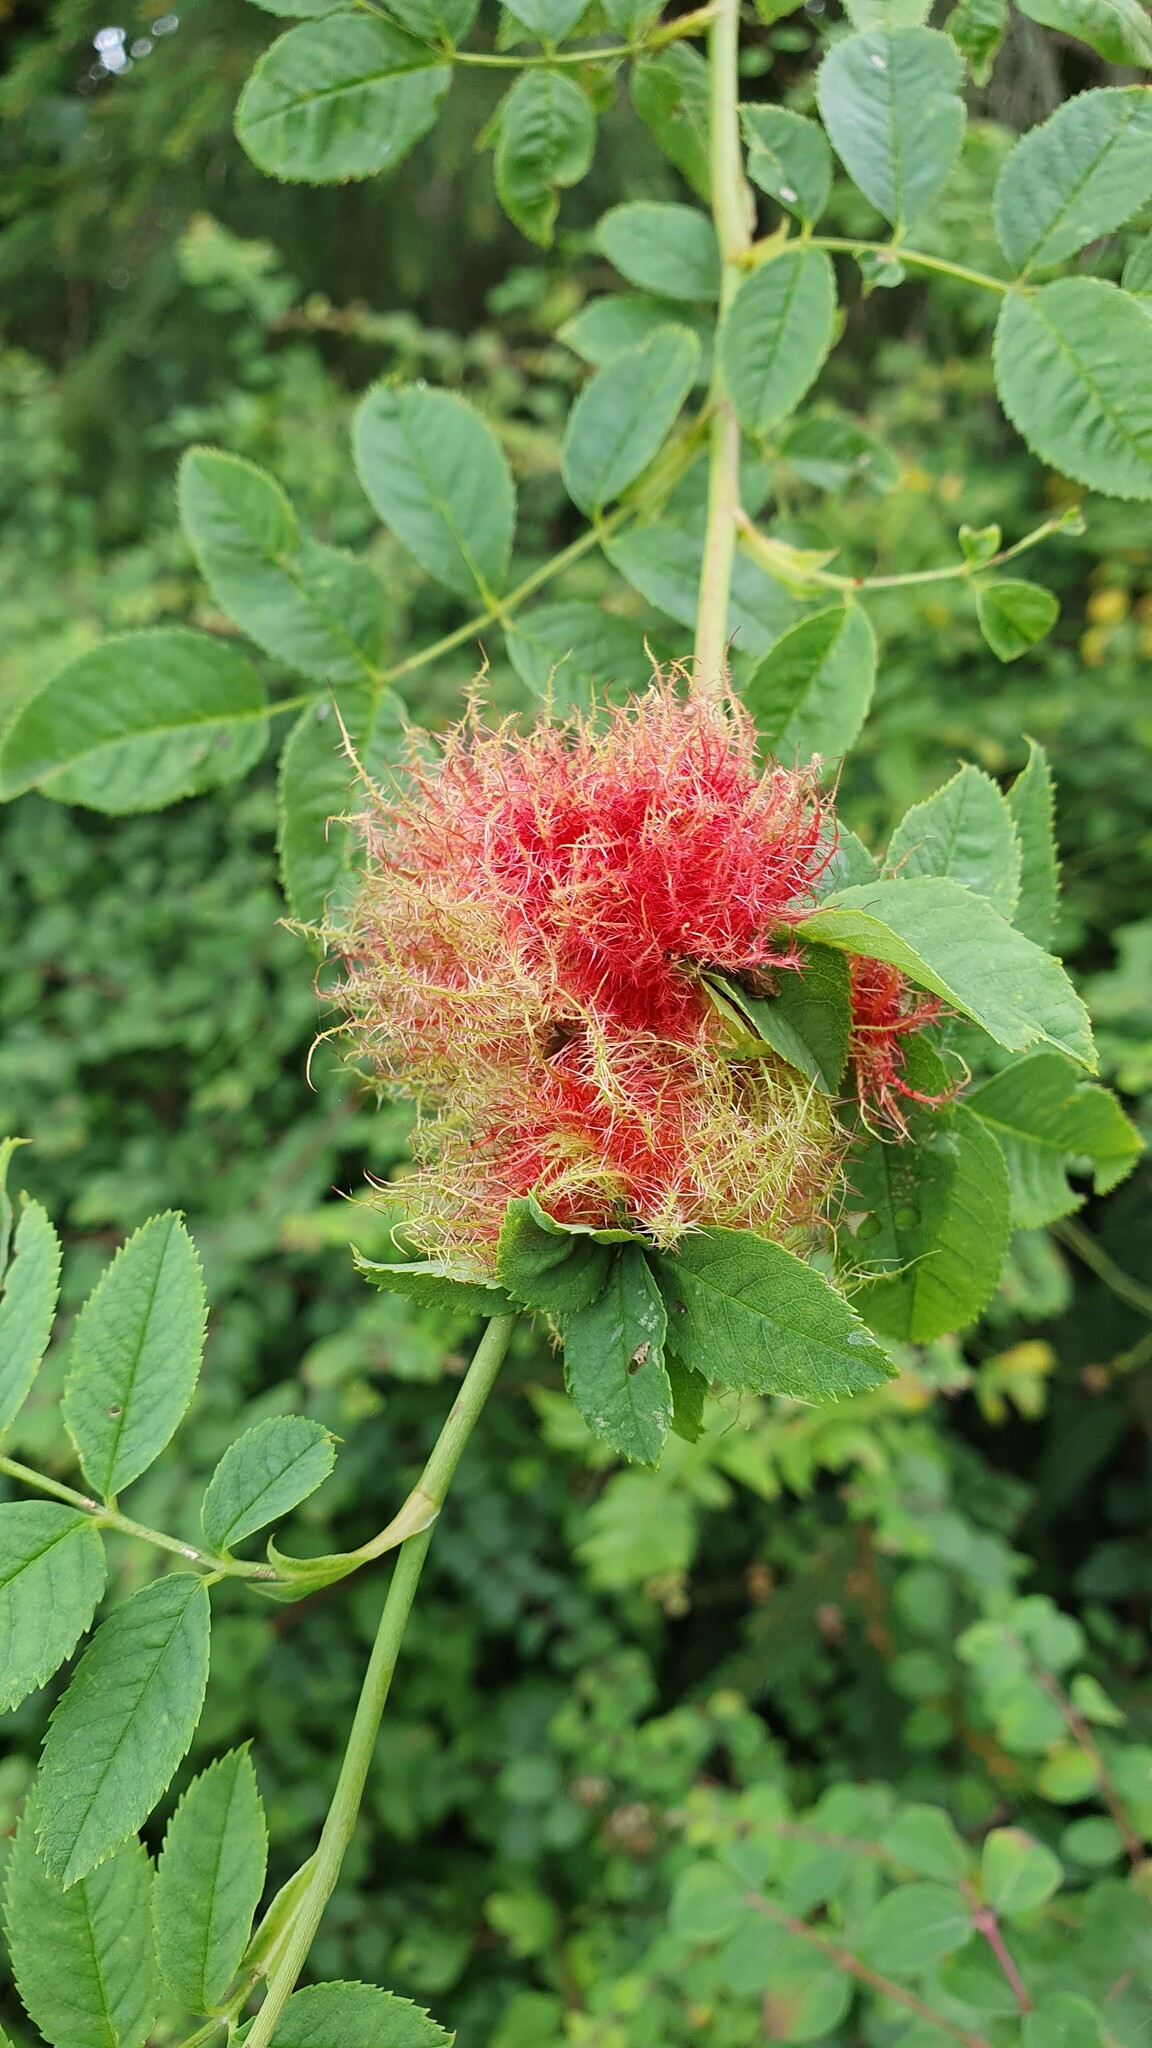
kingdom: Animalia
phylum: Arthropoda
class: Insecta
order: Hymenoptera
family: Cynipidae
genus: Diplolepis
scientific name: Diplolepis rosae
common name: Bedeguar gall
